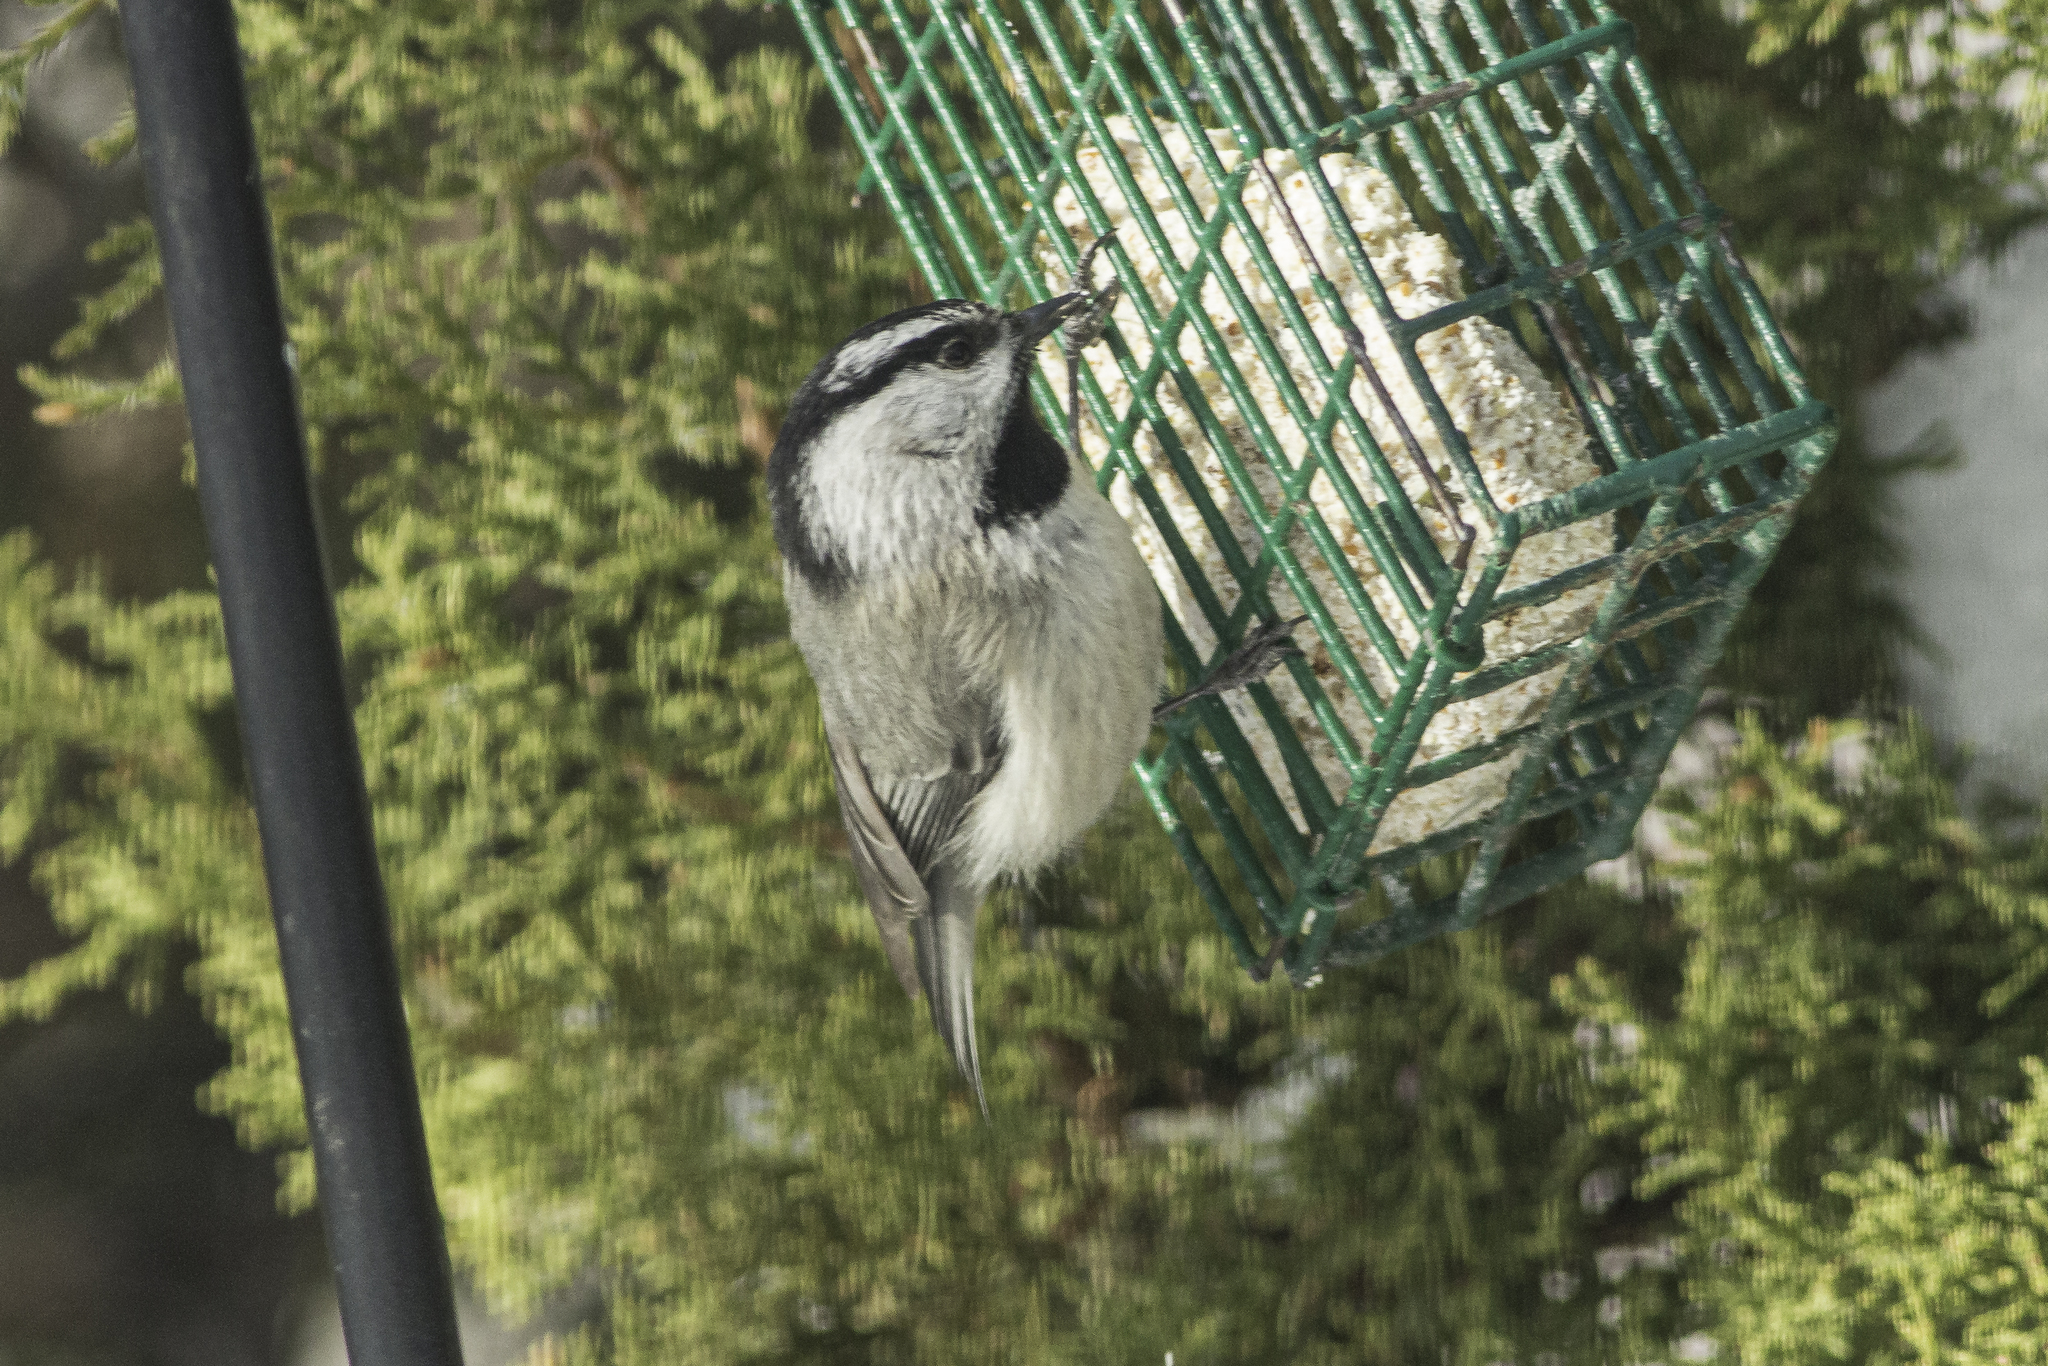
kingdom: Animalia
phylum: Chordata
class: Aves
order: Passeriformes
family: Paridae
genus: Poecile
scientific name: Poecile gambeli
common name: Mountain chickadee
